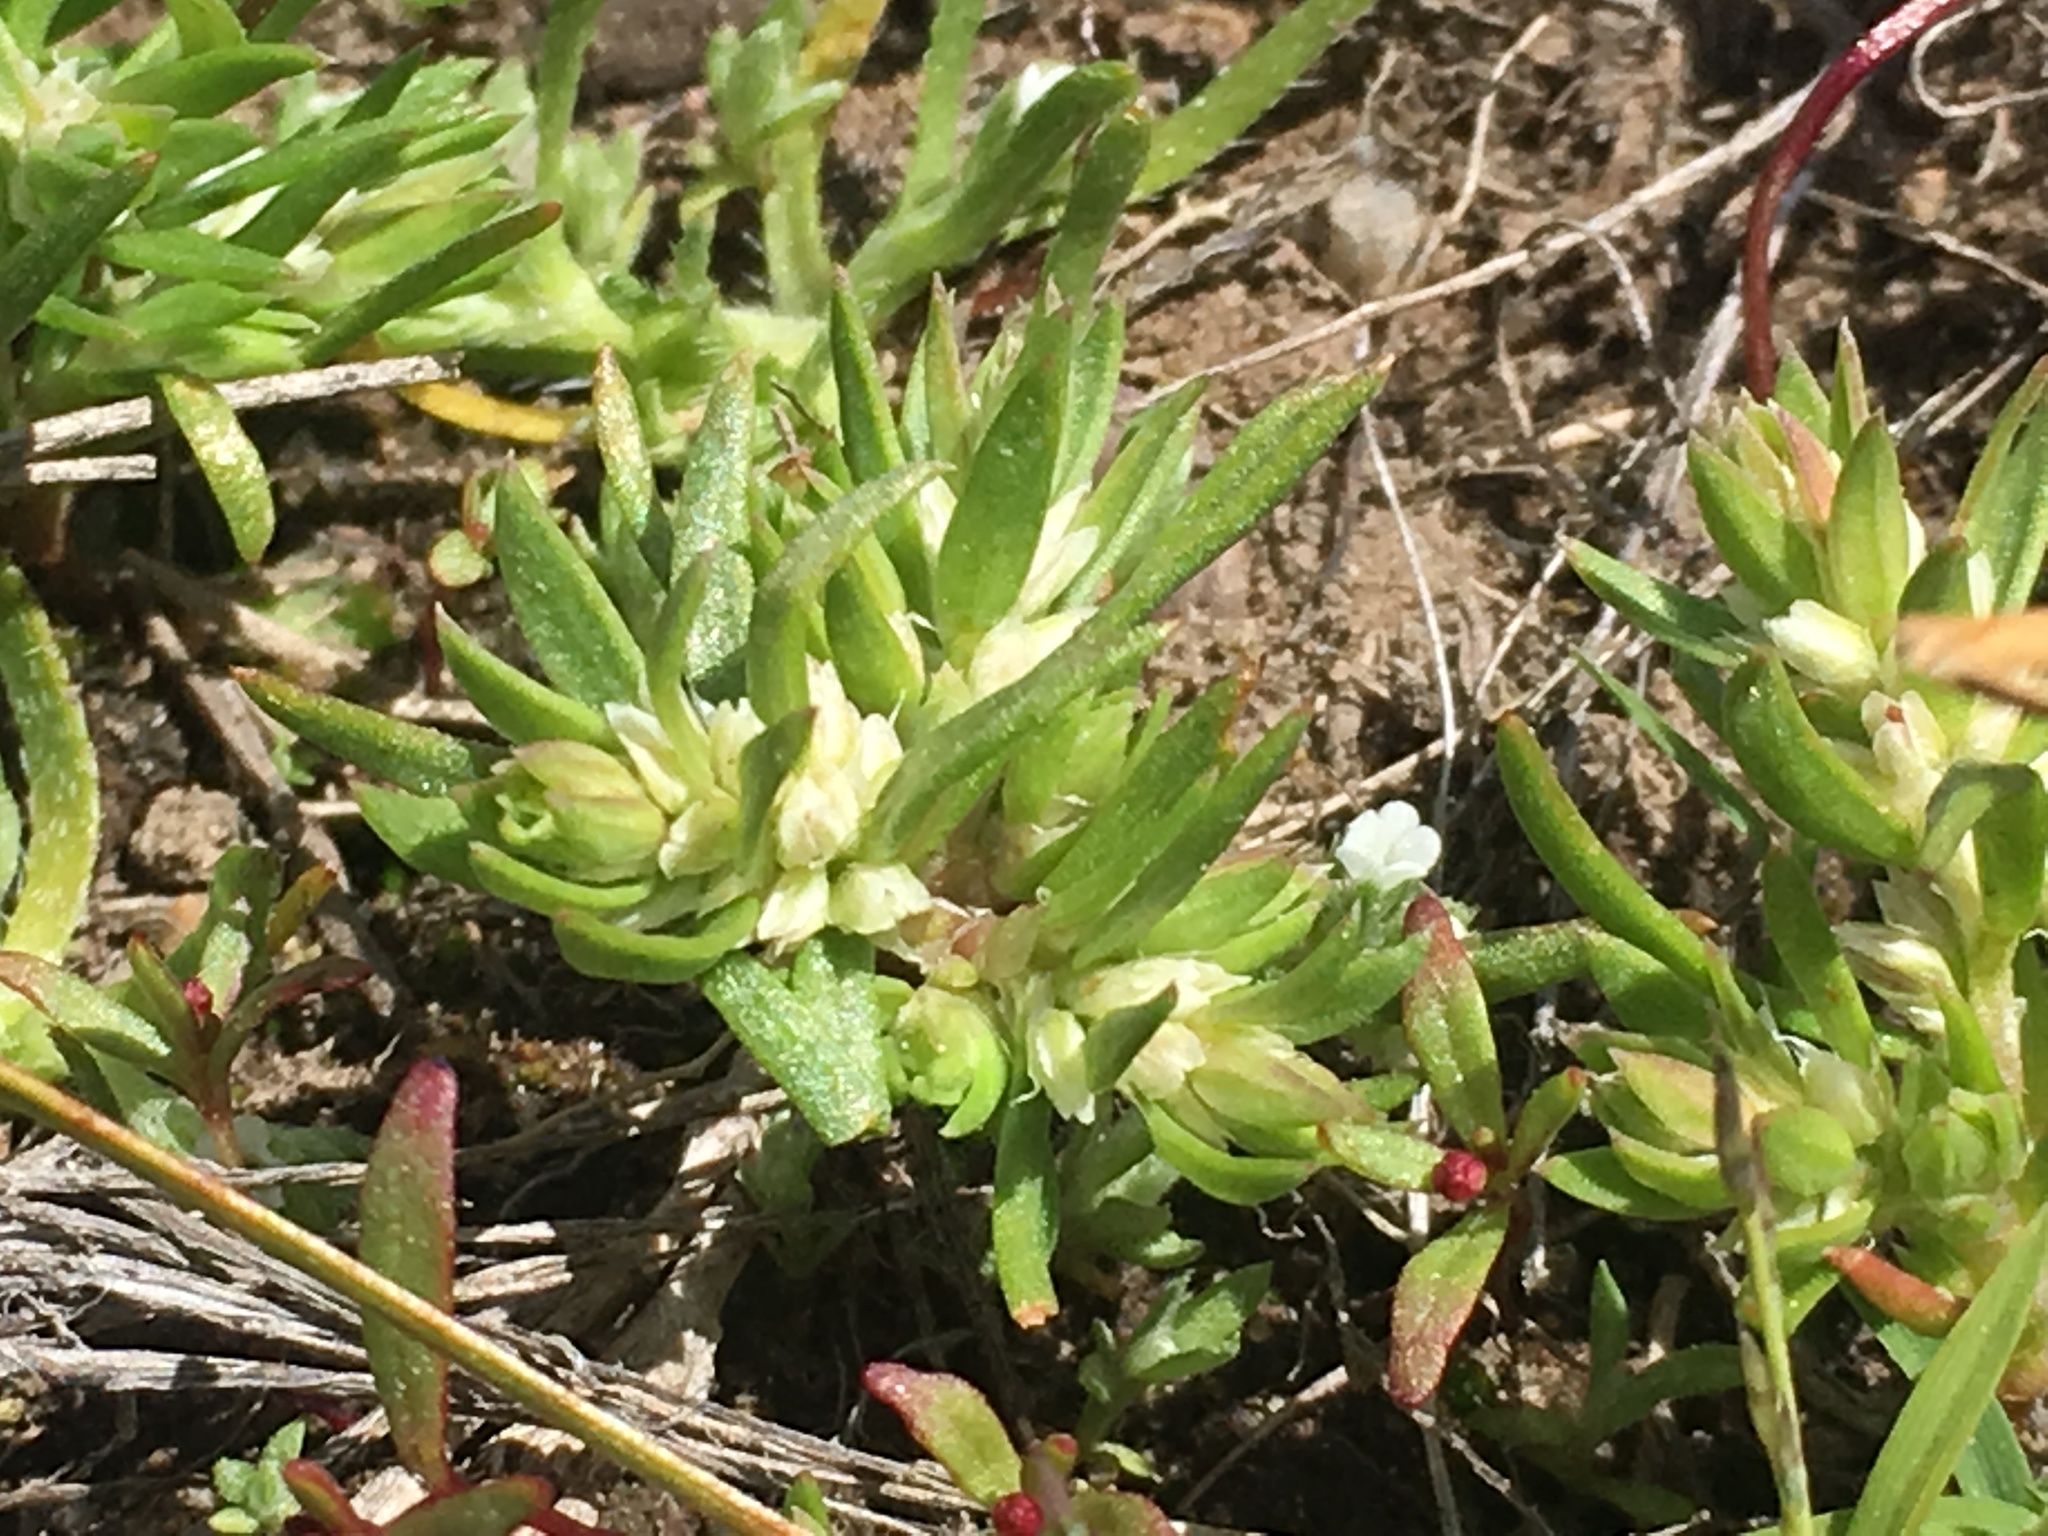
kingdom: Plantae
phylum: Tracheophyta
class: Magnoliopsida
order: Caryophyllales
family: Polygonaceae
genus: Polygonum
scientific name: Polygonum polygaloides
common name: Polygala knotweed
